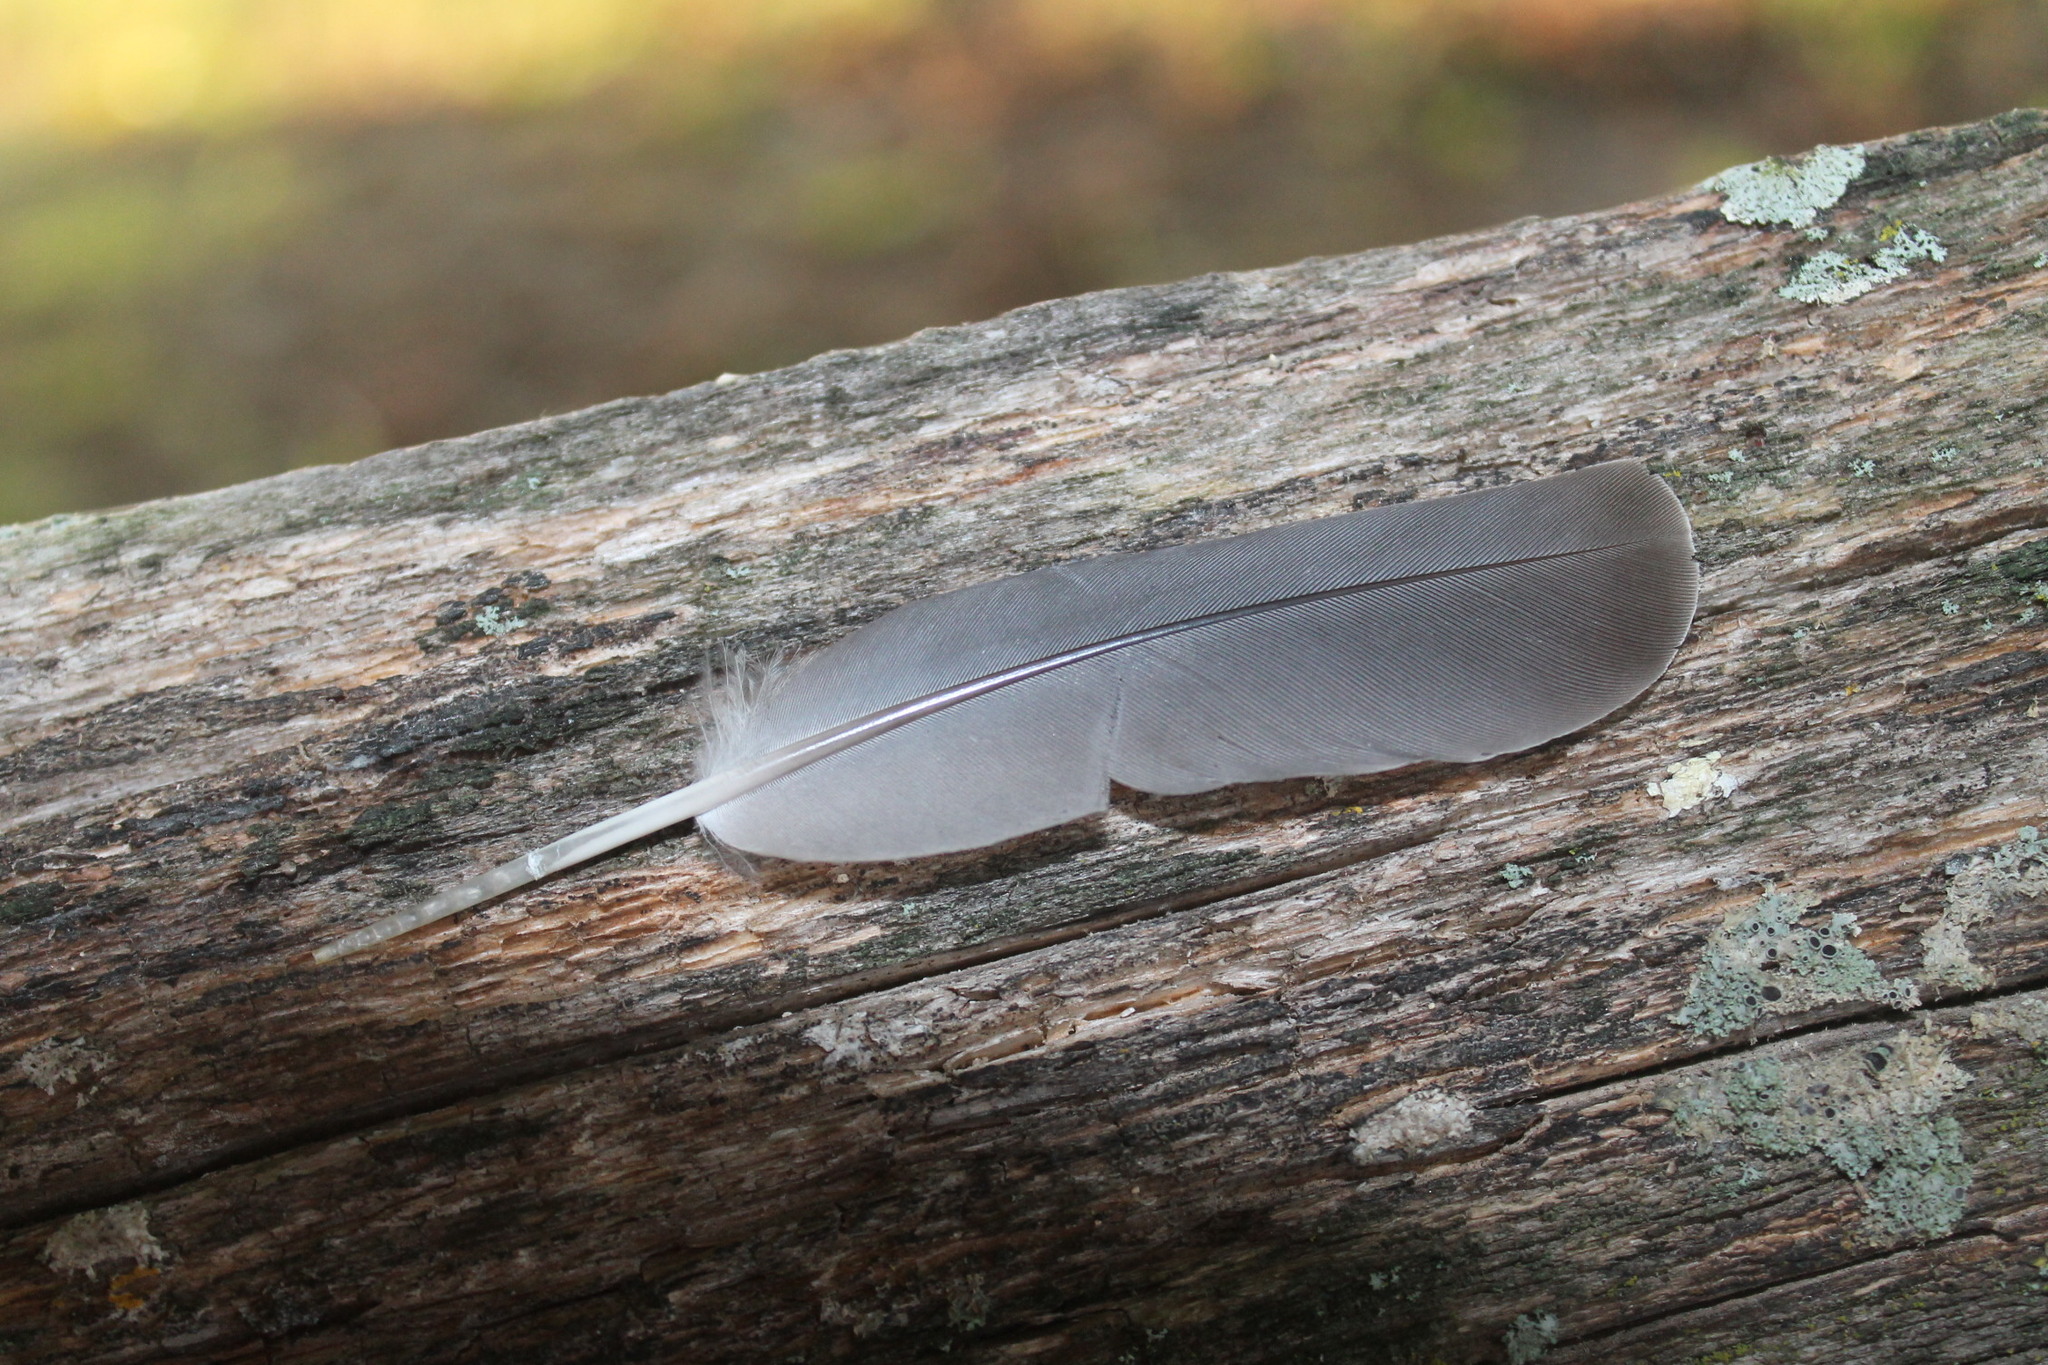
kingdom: Animalia
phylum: Chordata
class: Aves
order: Columbiformes
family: Columbidae
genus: Zenaida
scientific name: Zenaida macroura
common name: Mourning dove
